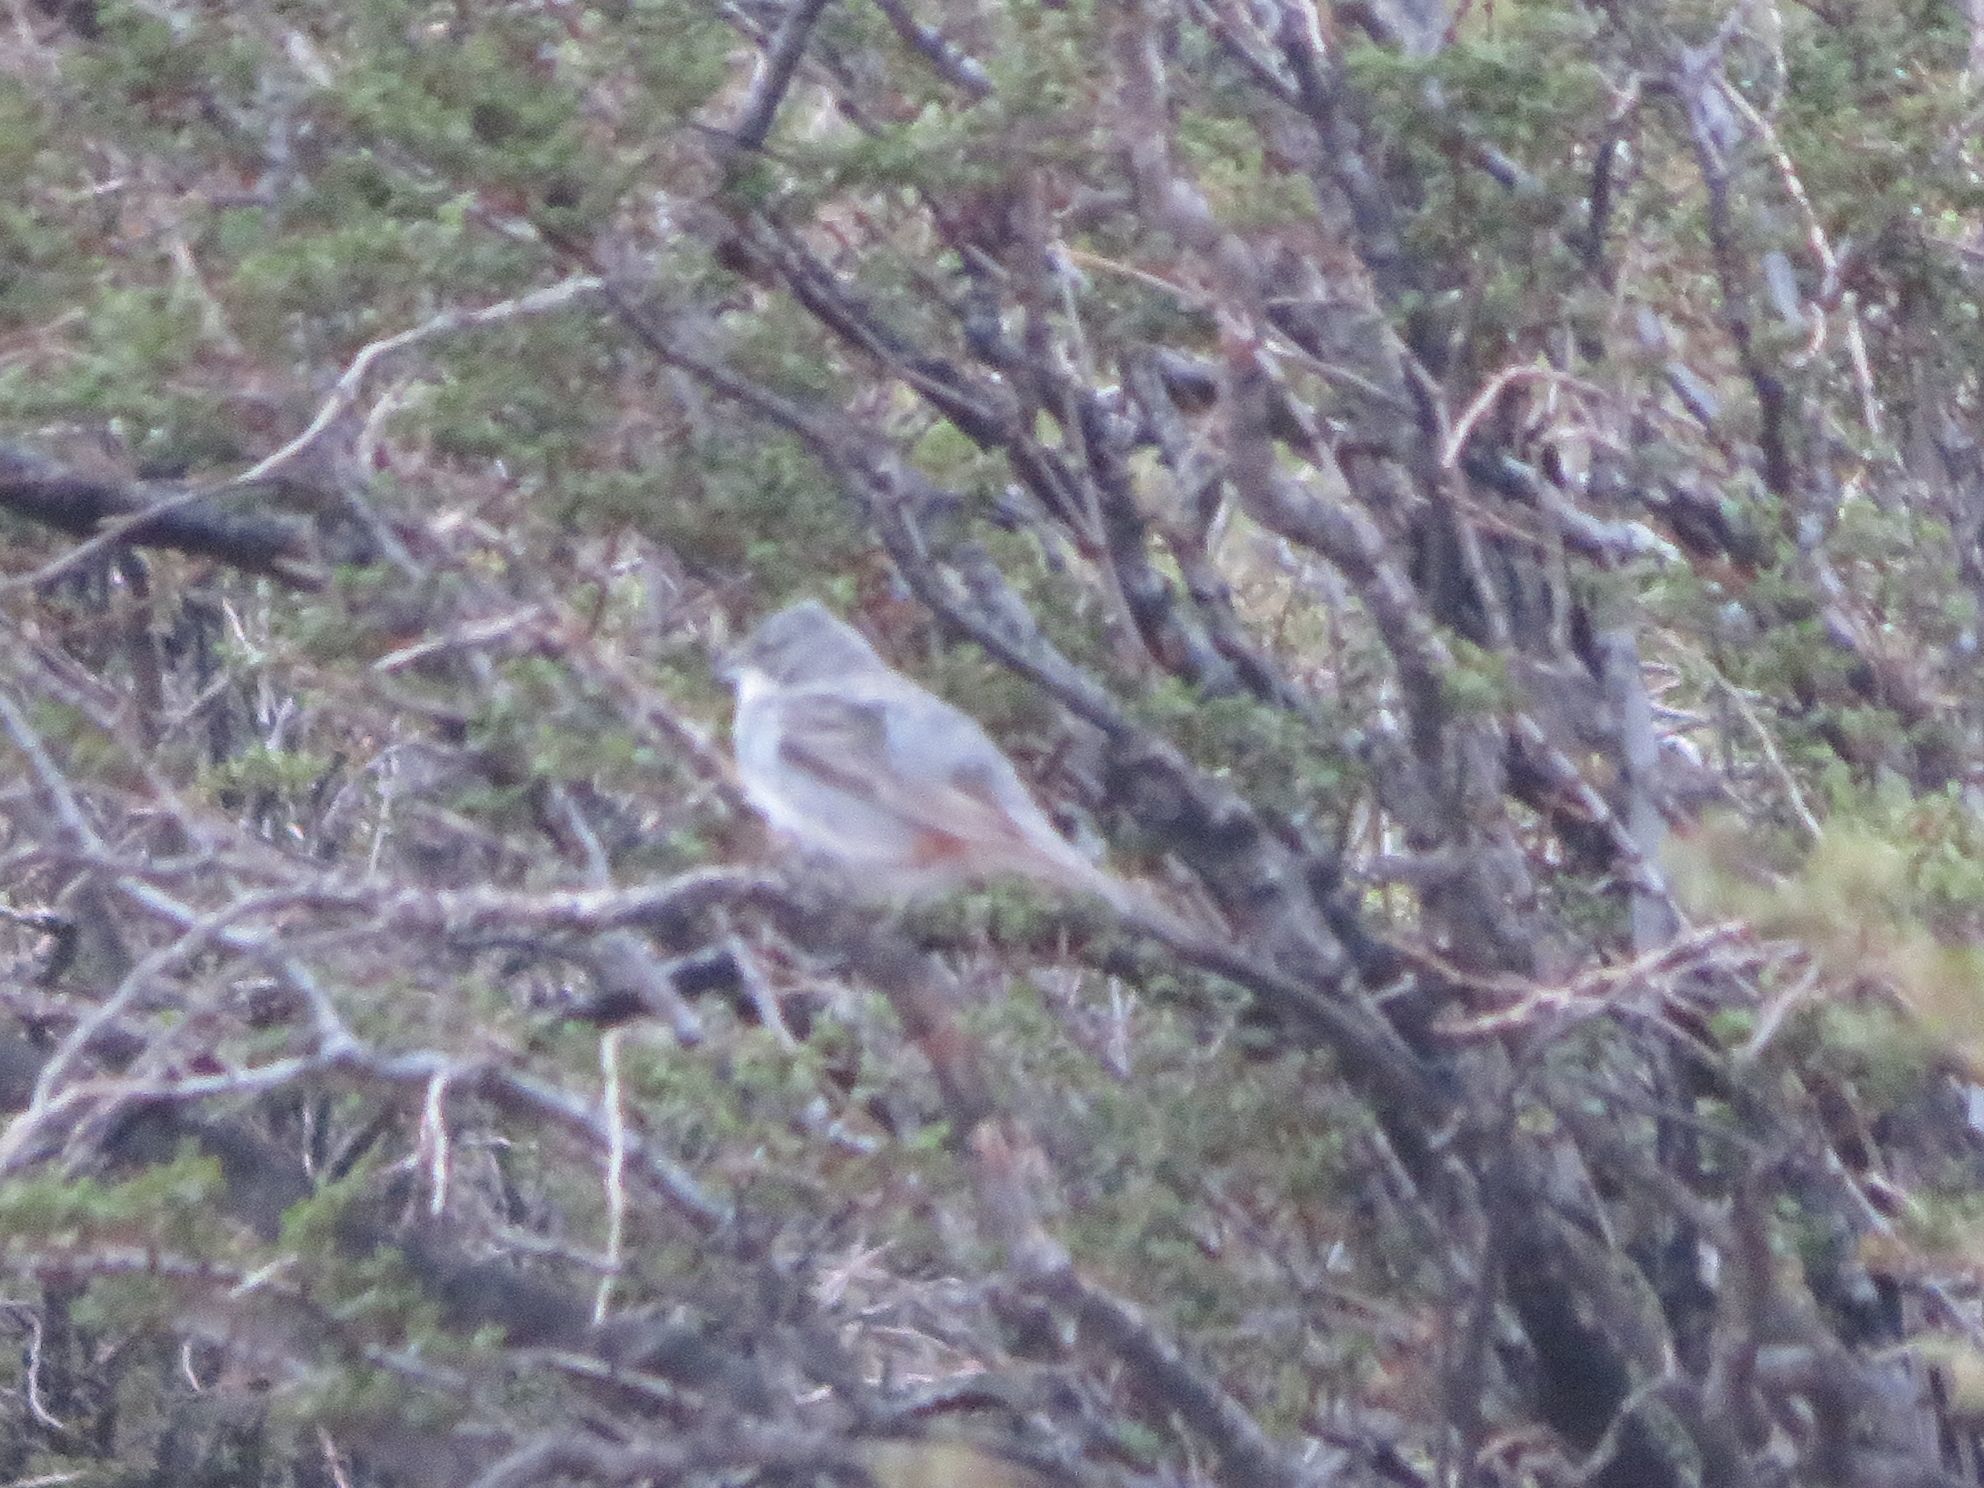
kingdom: Animalia
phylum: Chordata
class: Aves
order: Passeriformes
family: Thraupidae
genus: Diuca
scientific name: Diuca diuca
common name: Common diuca finch
